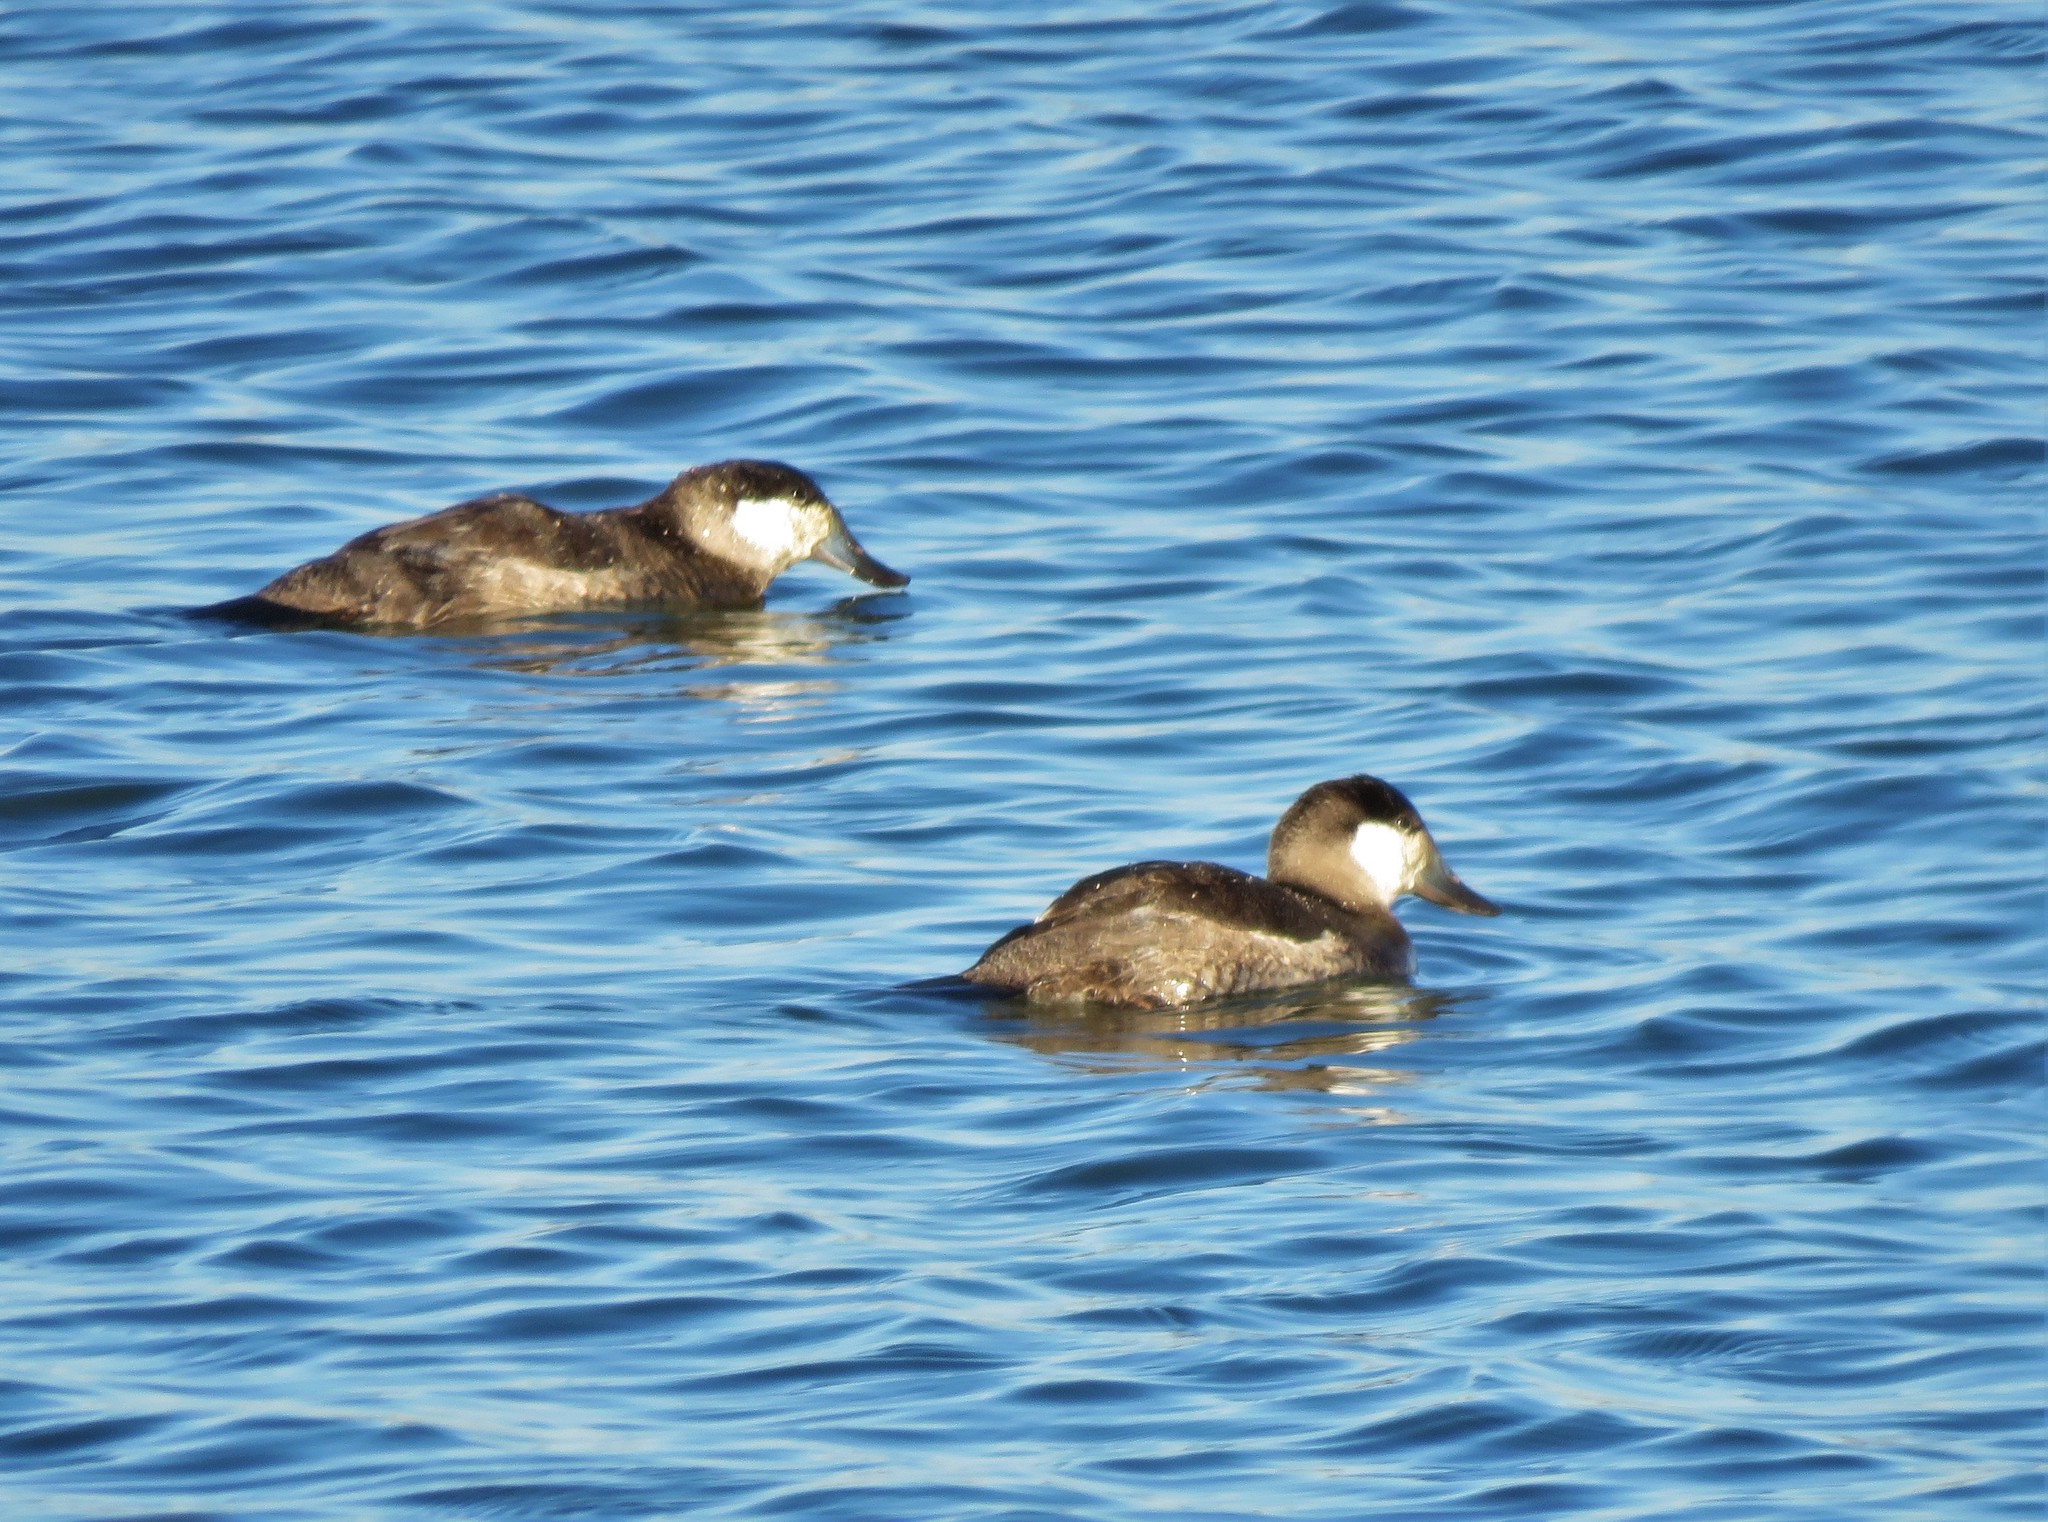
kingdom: Animalia
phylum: Chordata
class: Aves
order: Anseriformes
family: Anatidae
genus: Oxyura
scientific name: Oxyura jamaicensis
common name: Ruddy duck
